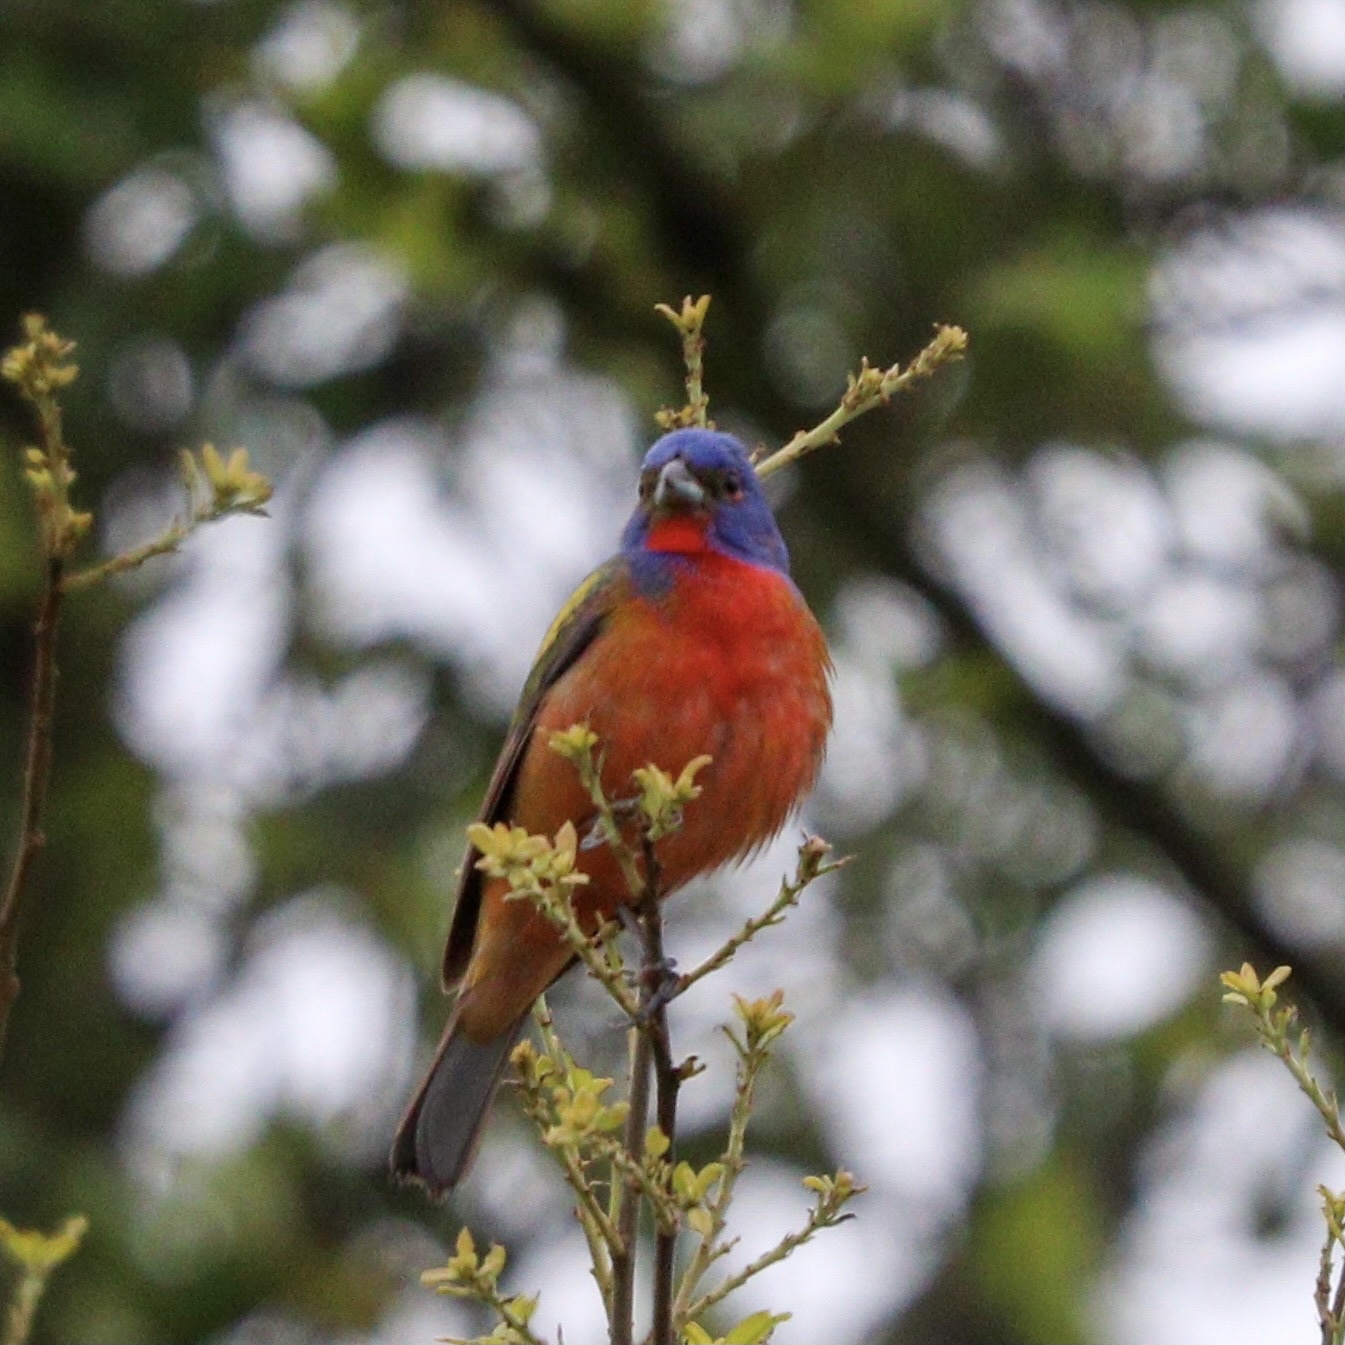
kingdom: Animalia
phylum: Chordata
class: Aves
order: Passeriformes
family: Cardinalidae
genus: Passerina
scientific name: Passerina ciris
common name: Painted bunting
